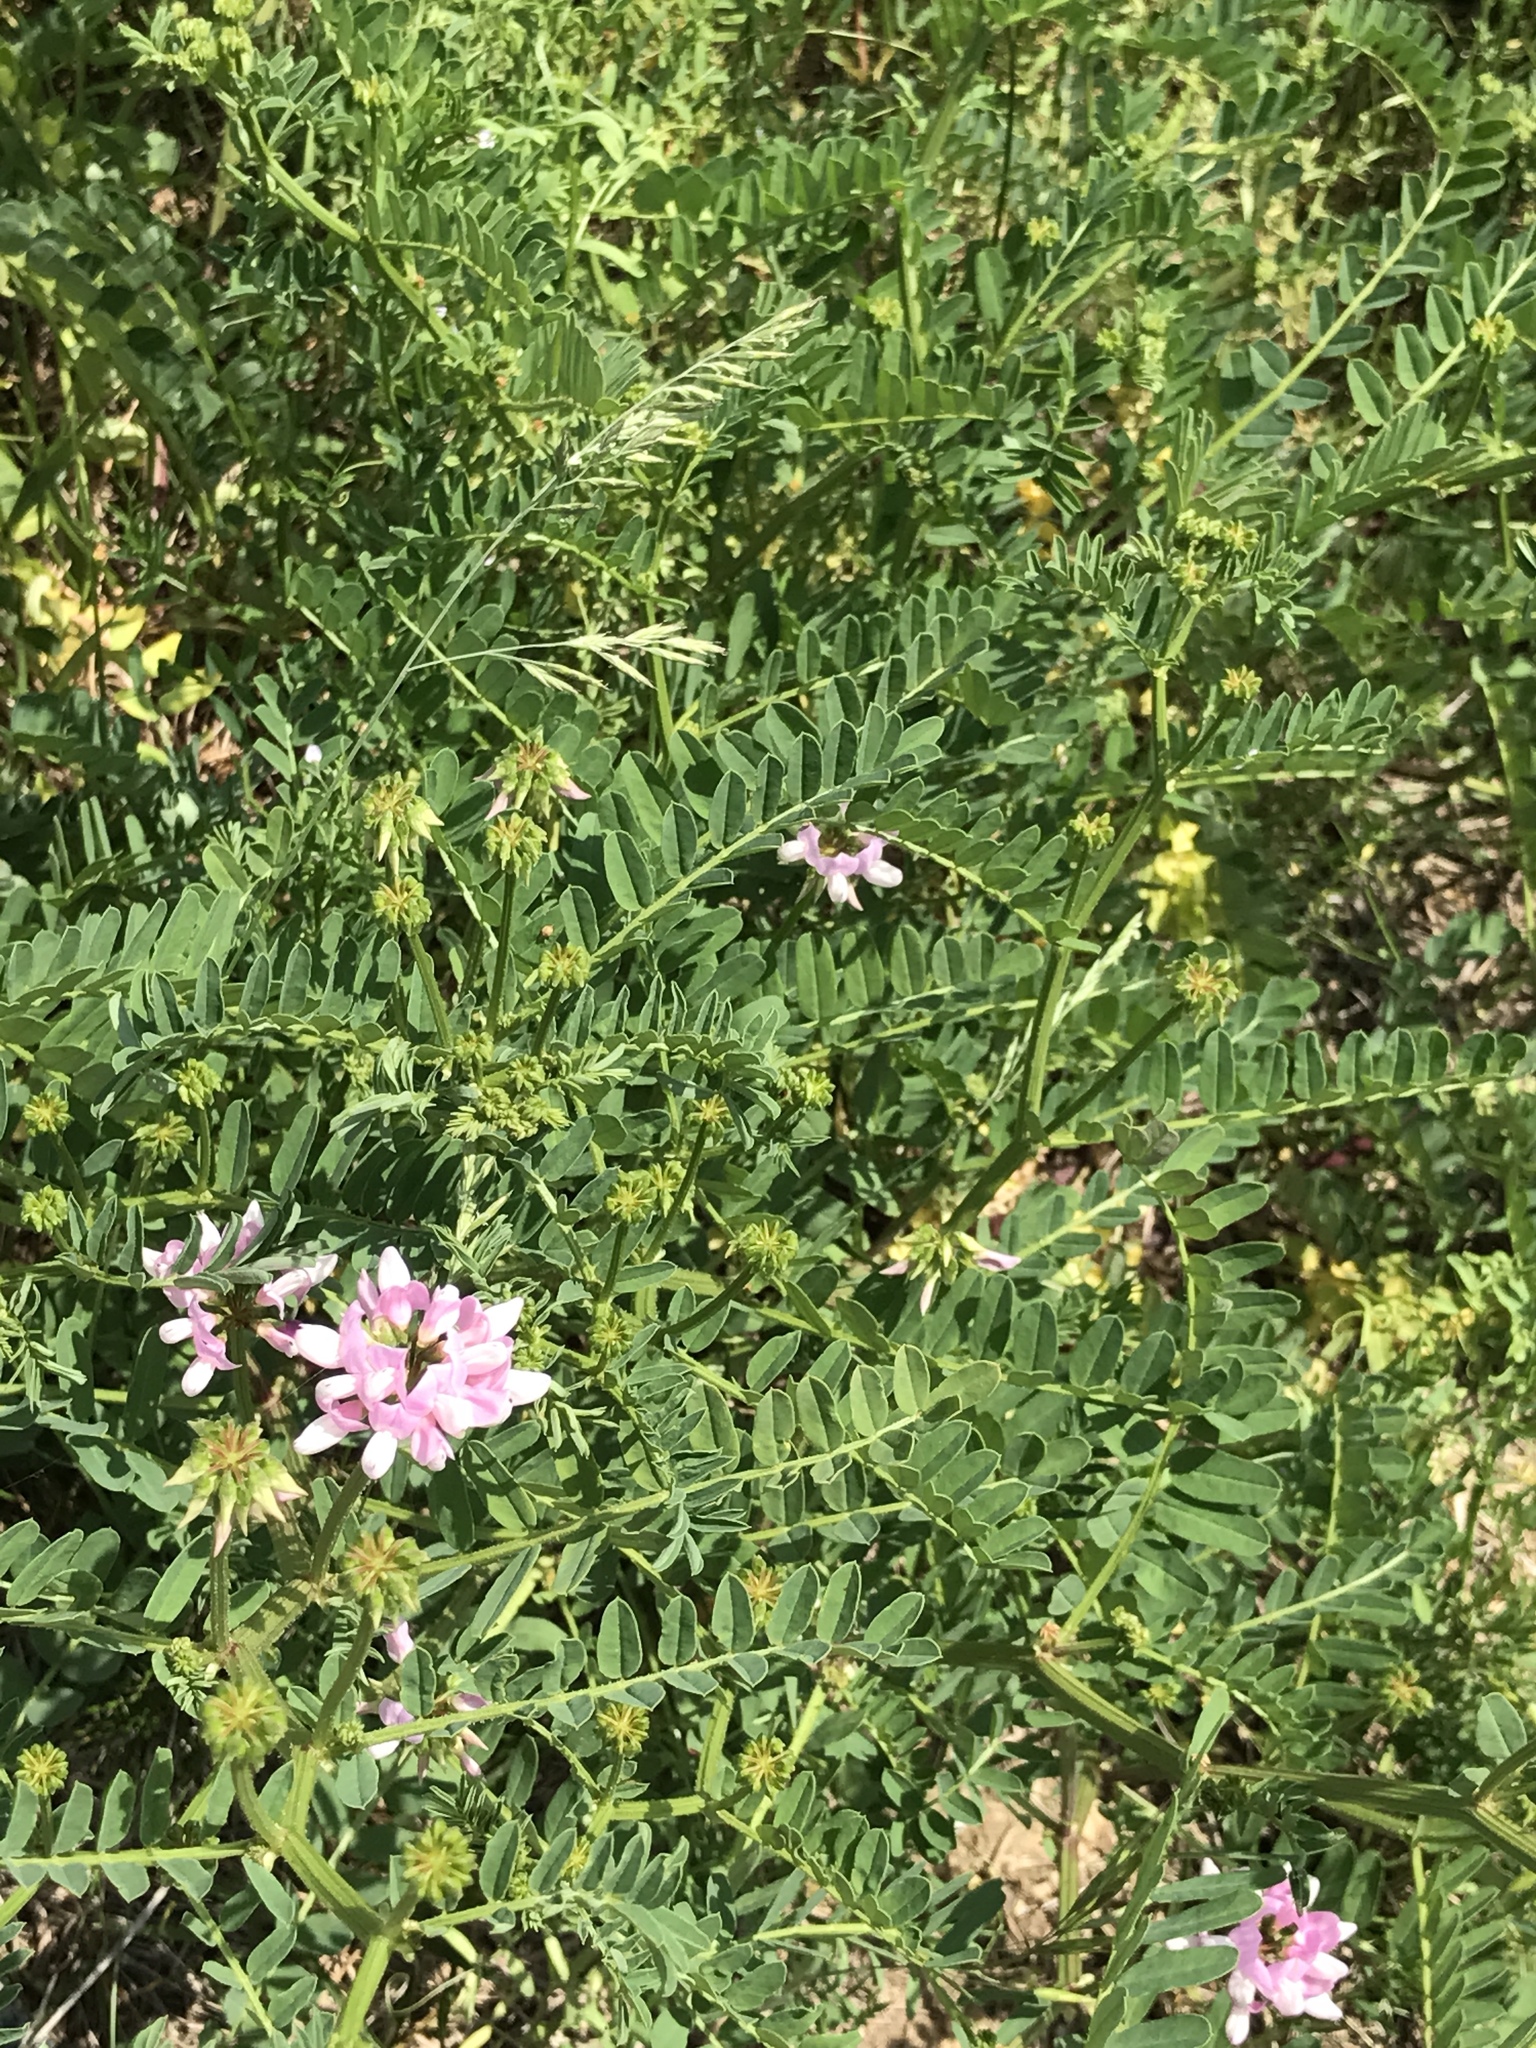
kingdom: Plantae
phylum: Tracheophyta
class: Magnoliopsida
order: Fabales
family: Fabaceae
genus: Coronilla
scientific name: Coronilla varia
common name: Crownvetch
